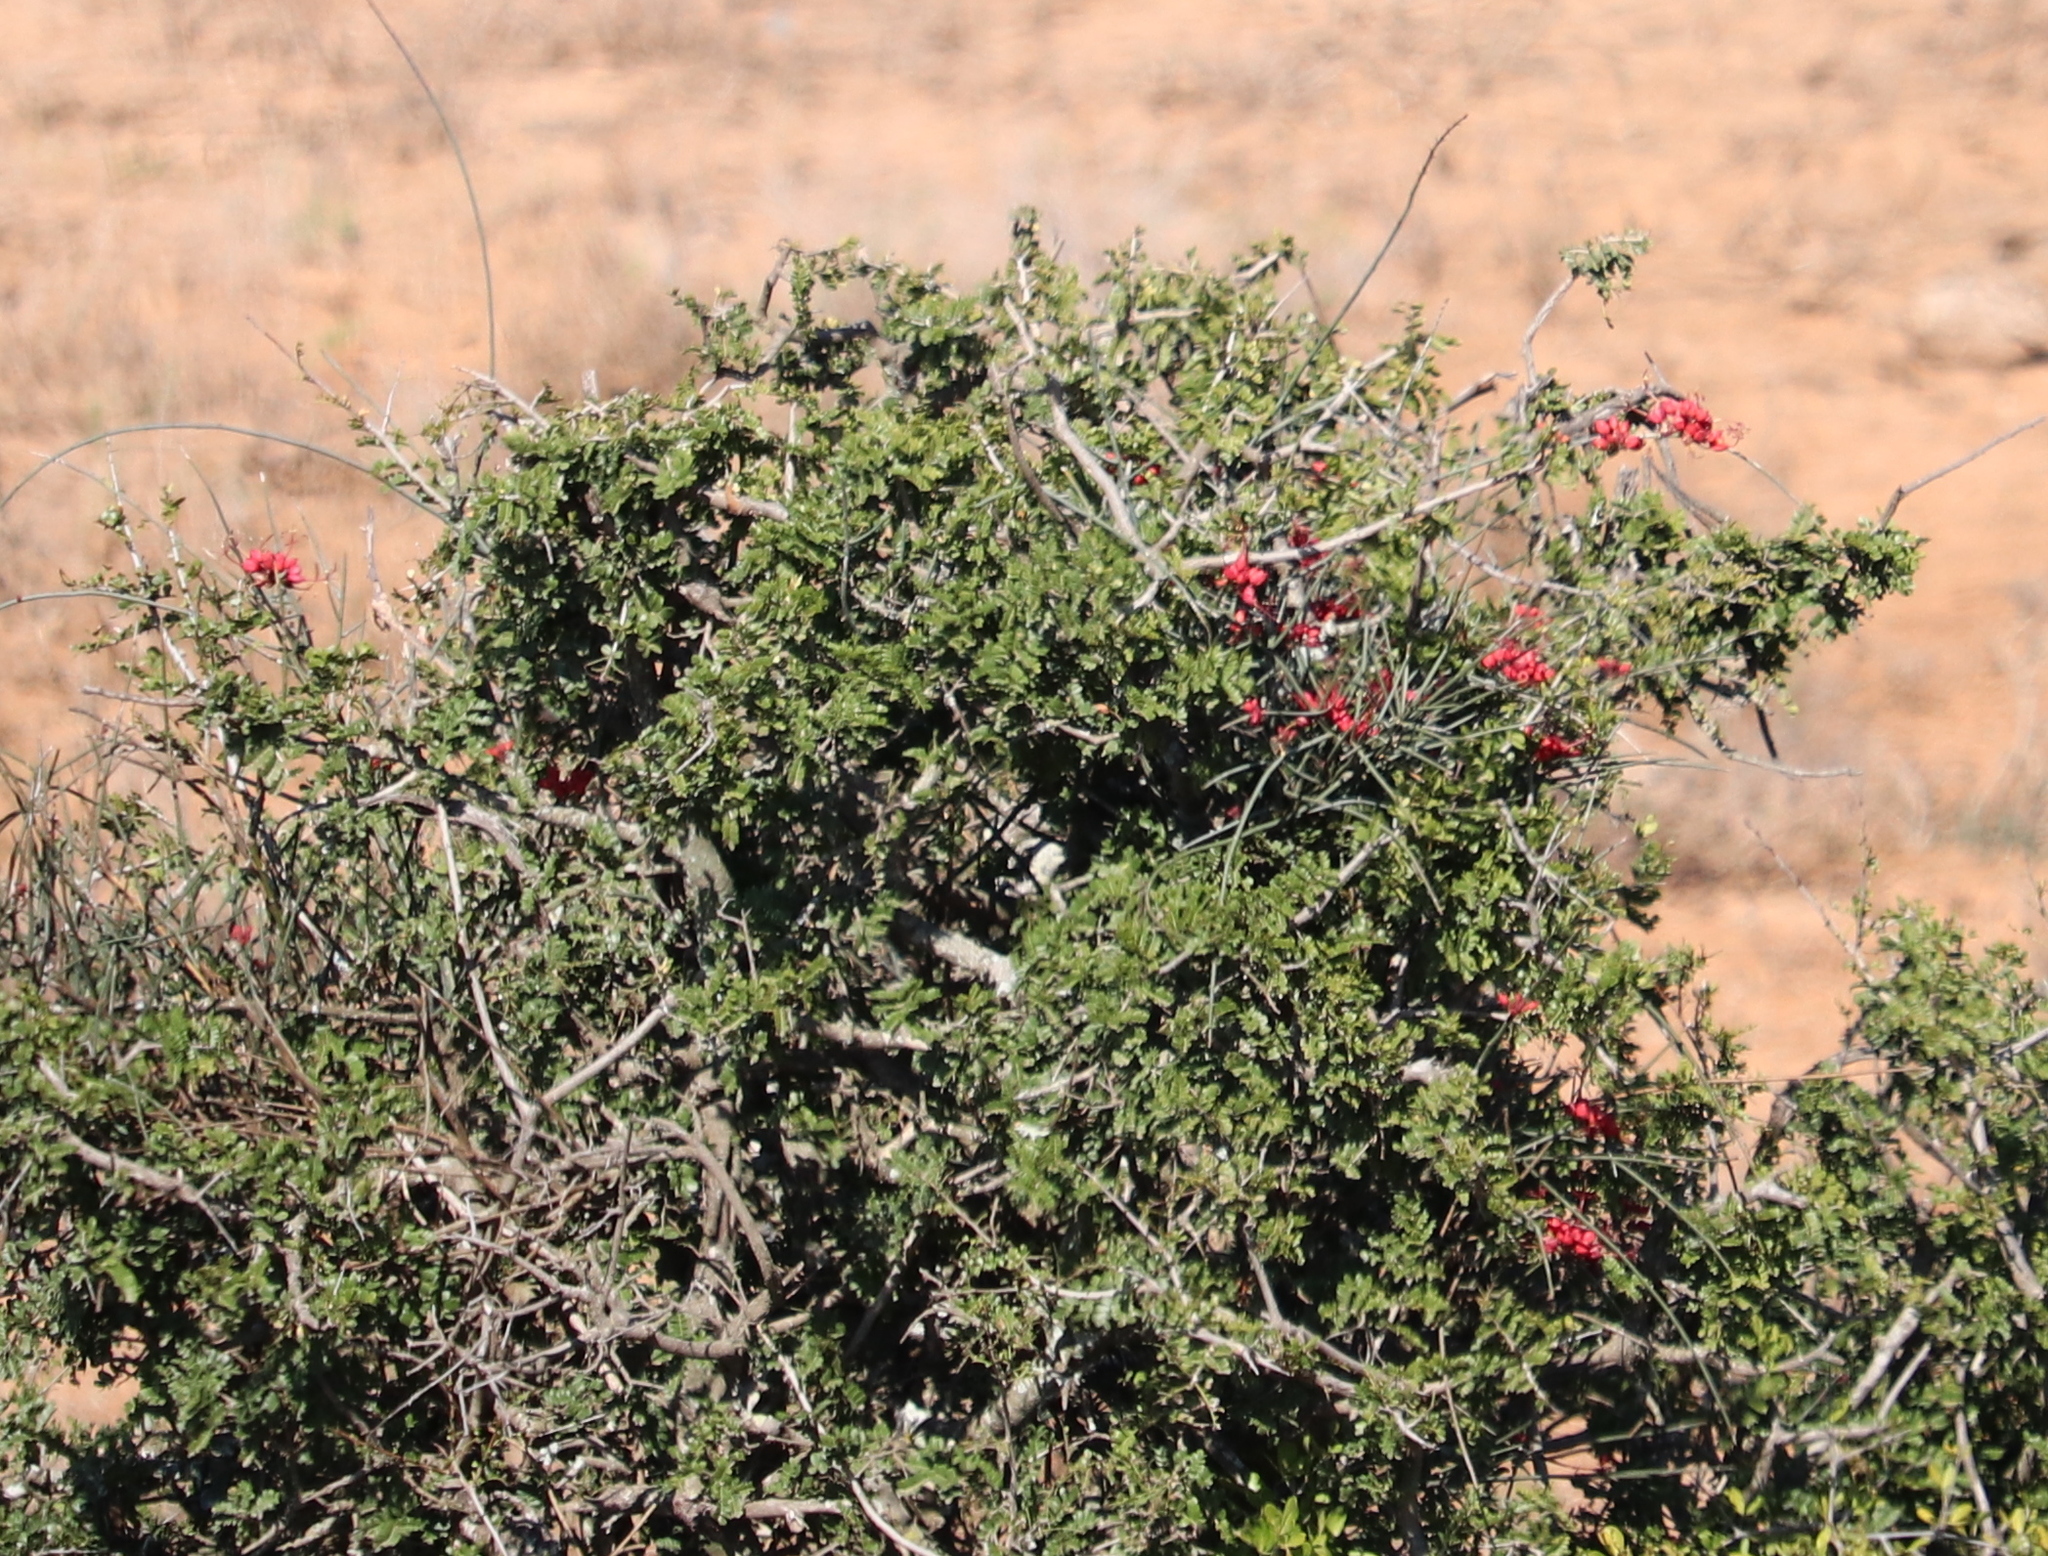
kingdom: Plantae
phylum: Tracheophyta
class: Magnoliopsida
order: Brassicales
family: Capparaceae
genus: Cadaba
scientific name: Cadaba aphylla
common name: Black storm
